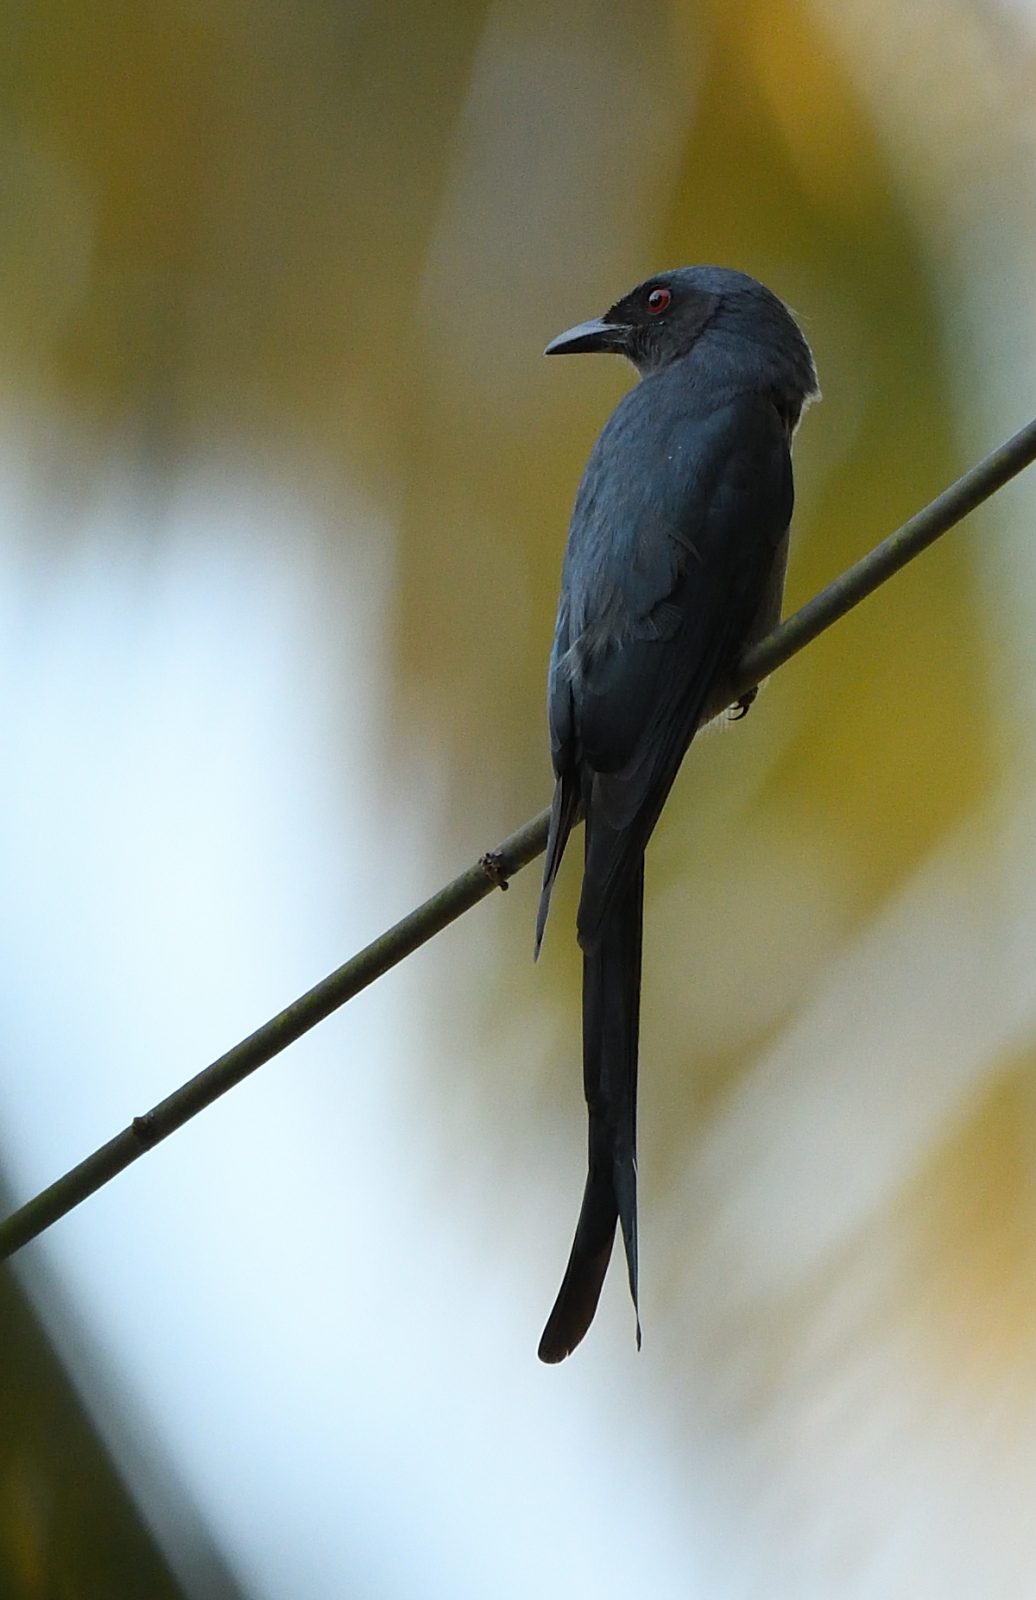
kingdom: Animalia
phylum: Chordata
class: Aves
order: Passeriformes
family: Dicruridae
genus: Dicrurus
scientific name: Dicrurus leucophaeus
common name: Ashy drongo
